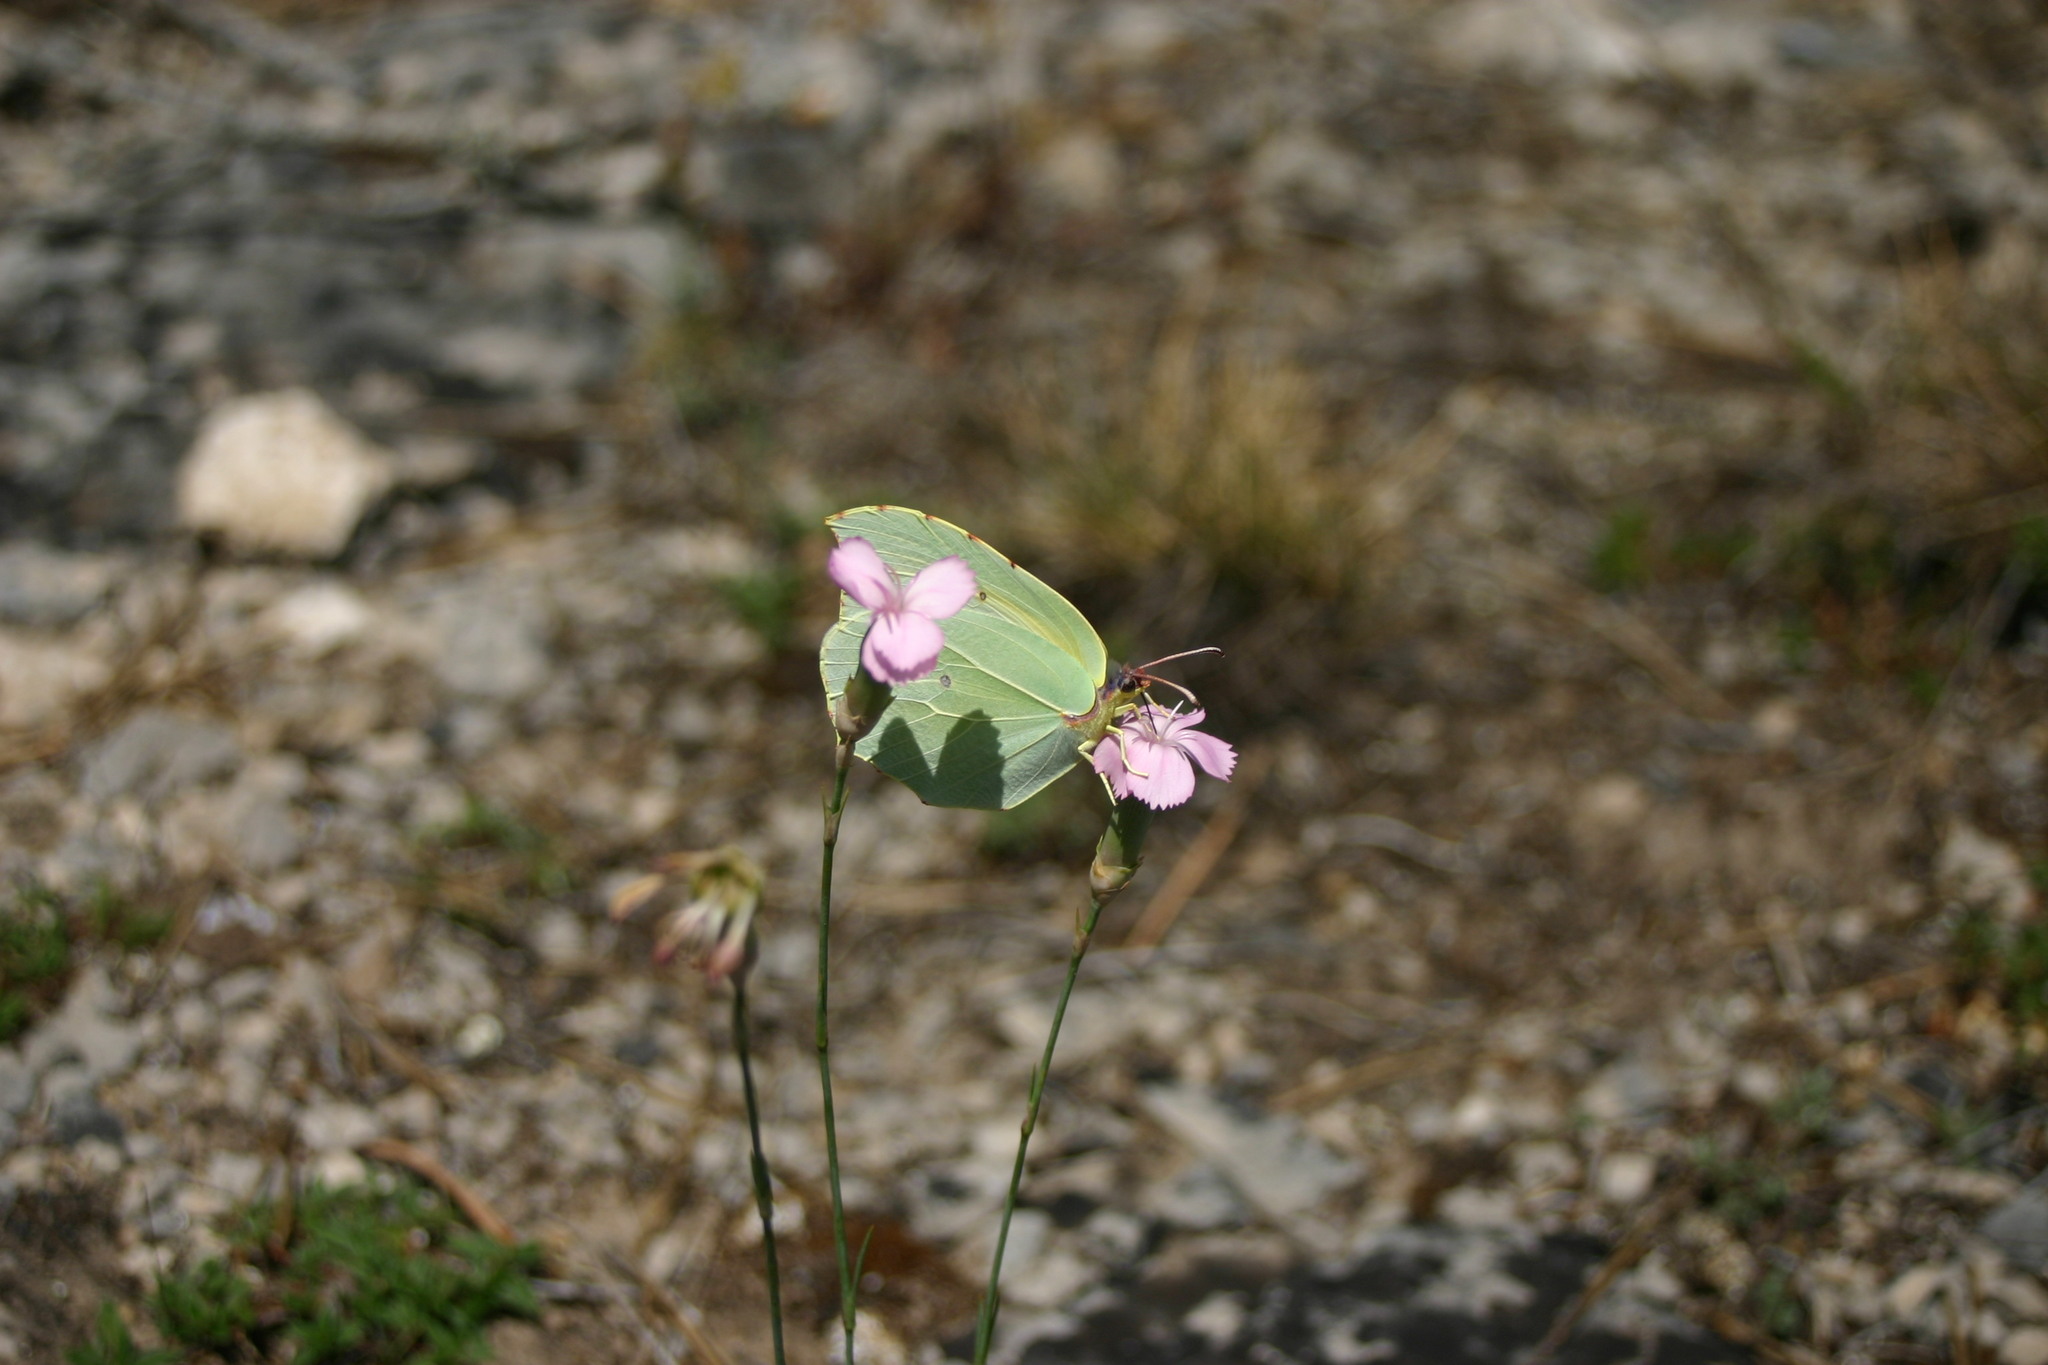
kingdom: Animalia
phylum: Arthropoda
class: Insecta
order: Lepidoptera
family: Pieridae
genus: Gonepteryx
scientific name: Gonepteryx cleopatra
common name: Cleopatra
